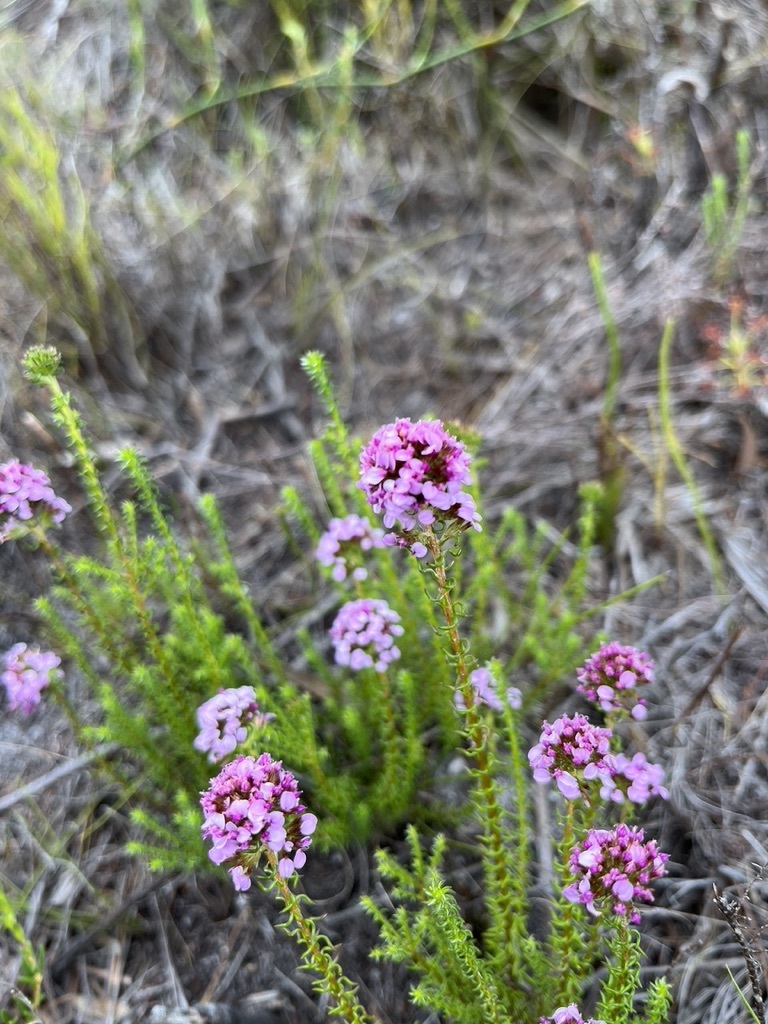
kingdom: Plantae
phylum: Tracheophyta
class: Magnoliopsida
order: Asterales
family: Asteraceae
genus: Disparago
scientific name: Disparago ericoides
